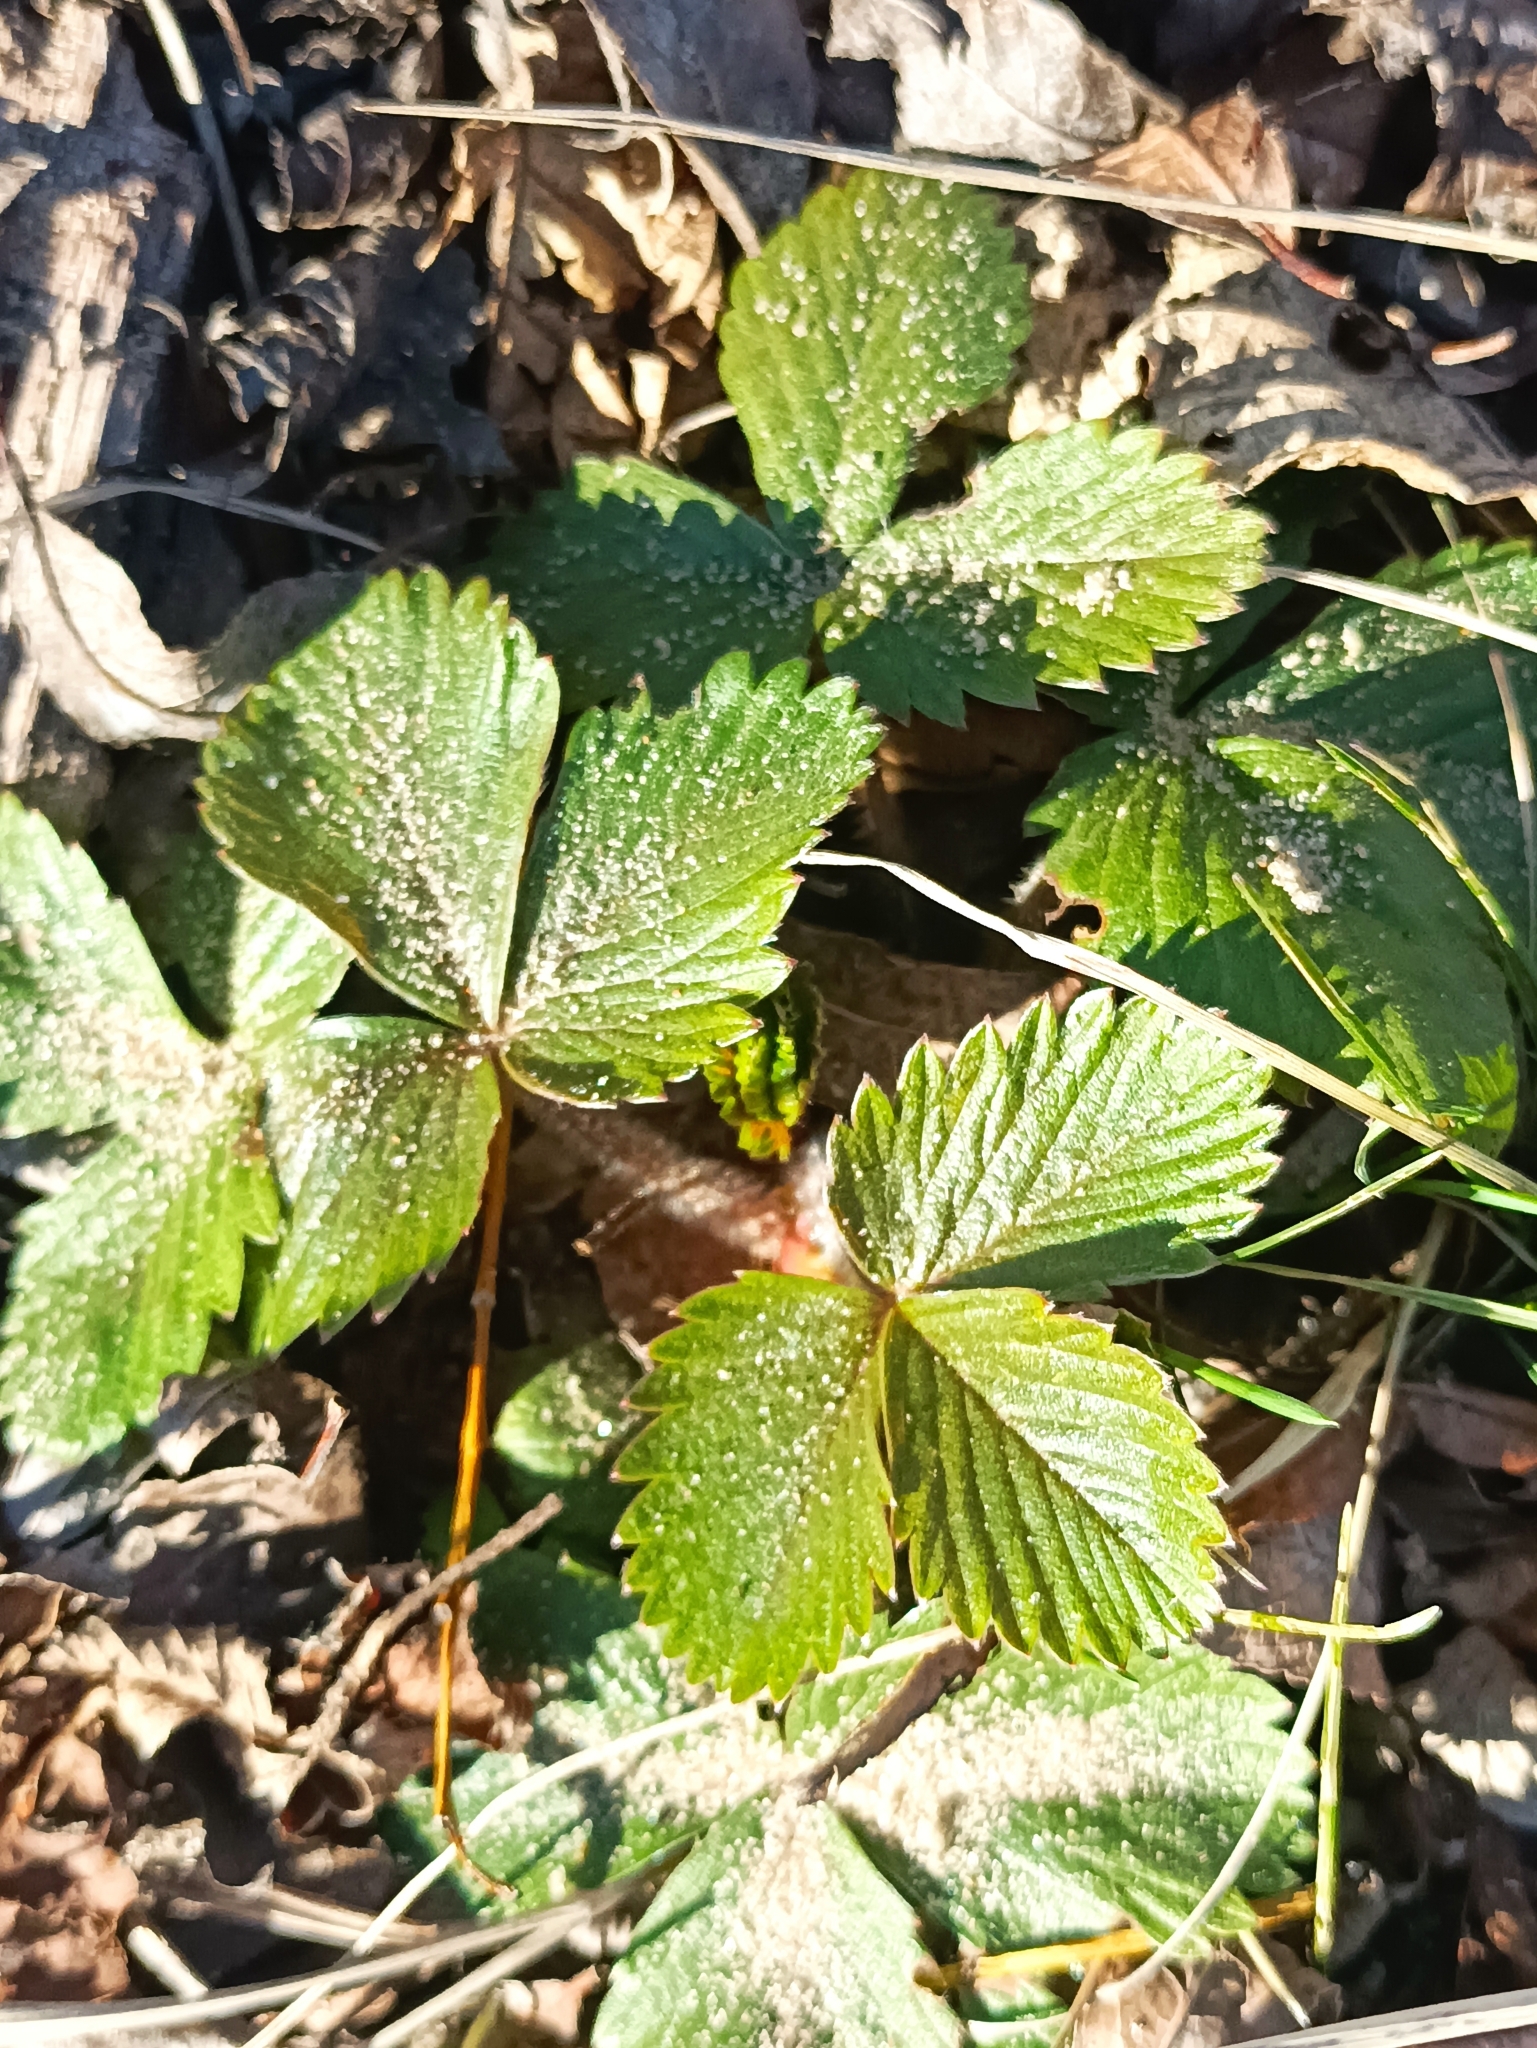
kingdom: Plantae
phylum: Tracheophyta
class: Magnoliopsida
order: Rosales
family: Rosaceae
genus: Fragaria
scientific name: Fragaria vesca
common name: Wild strawberry
